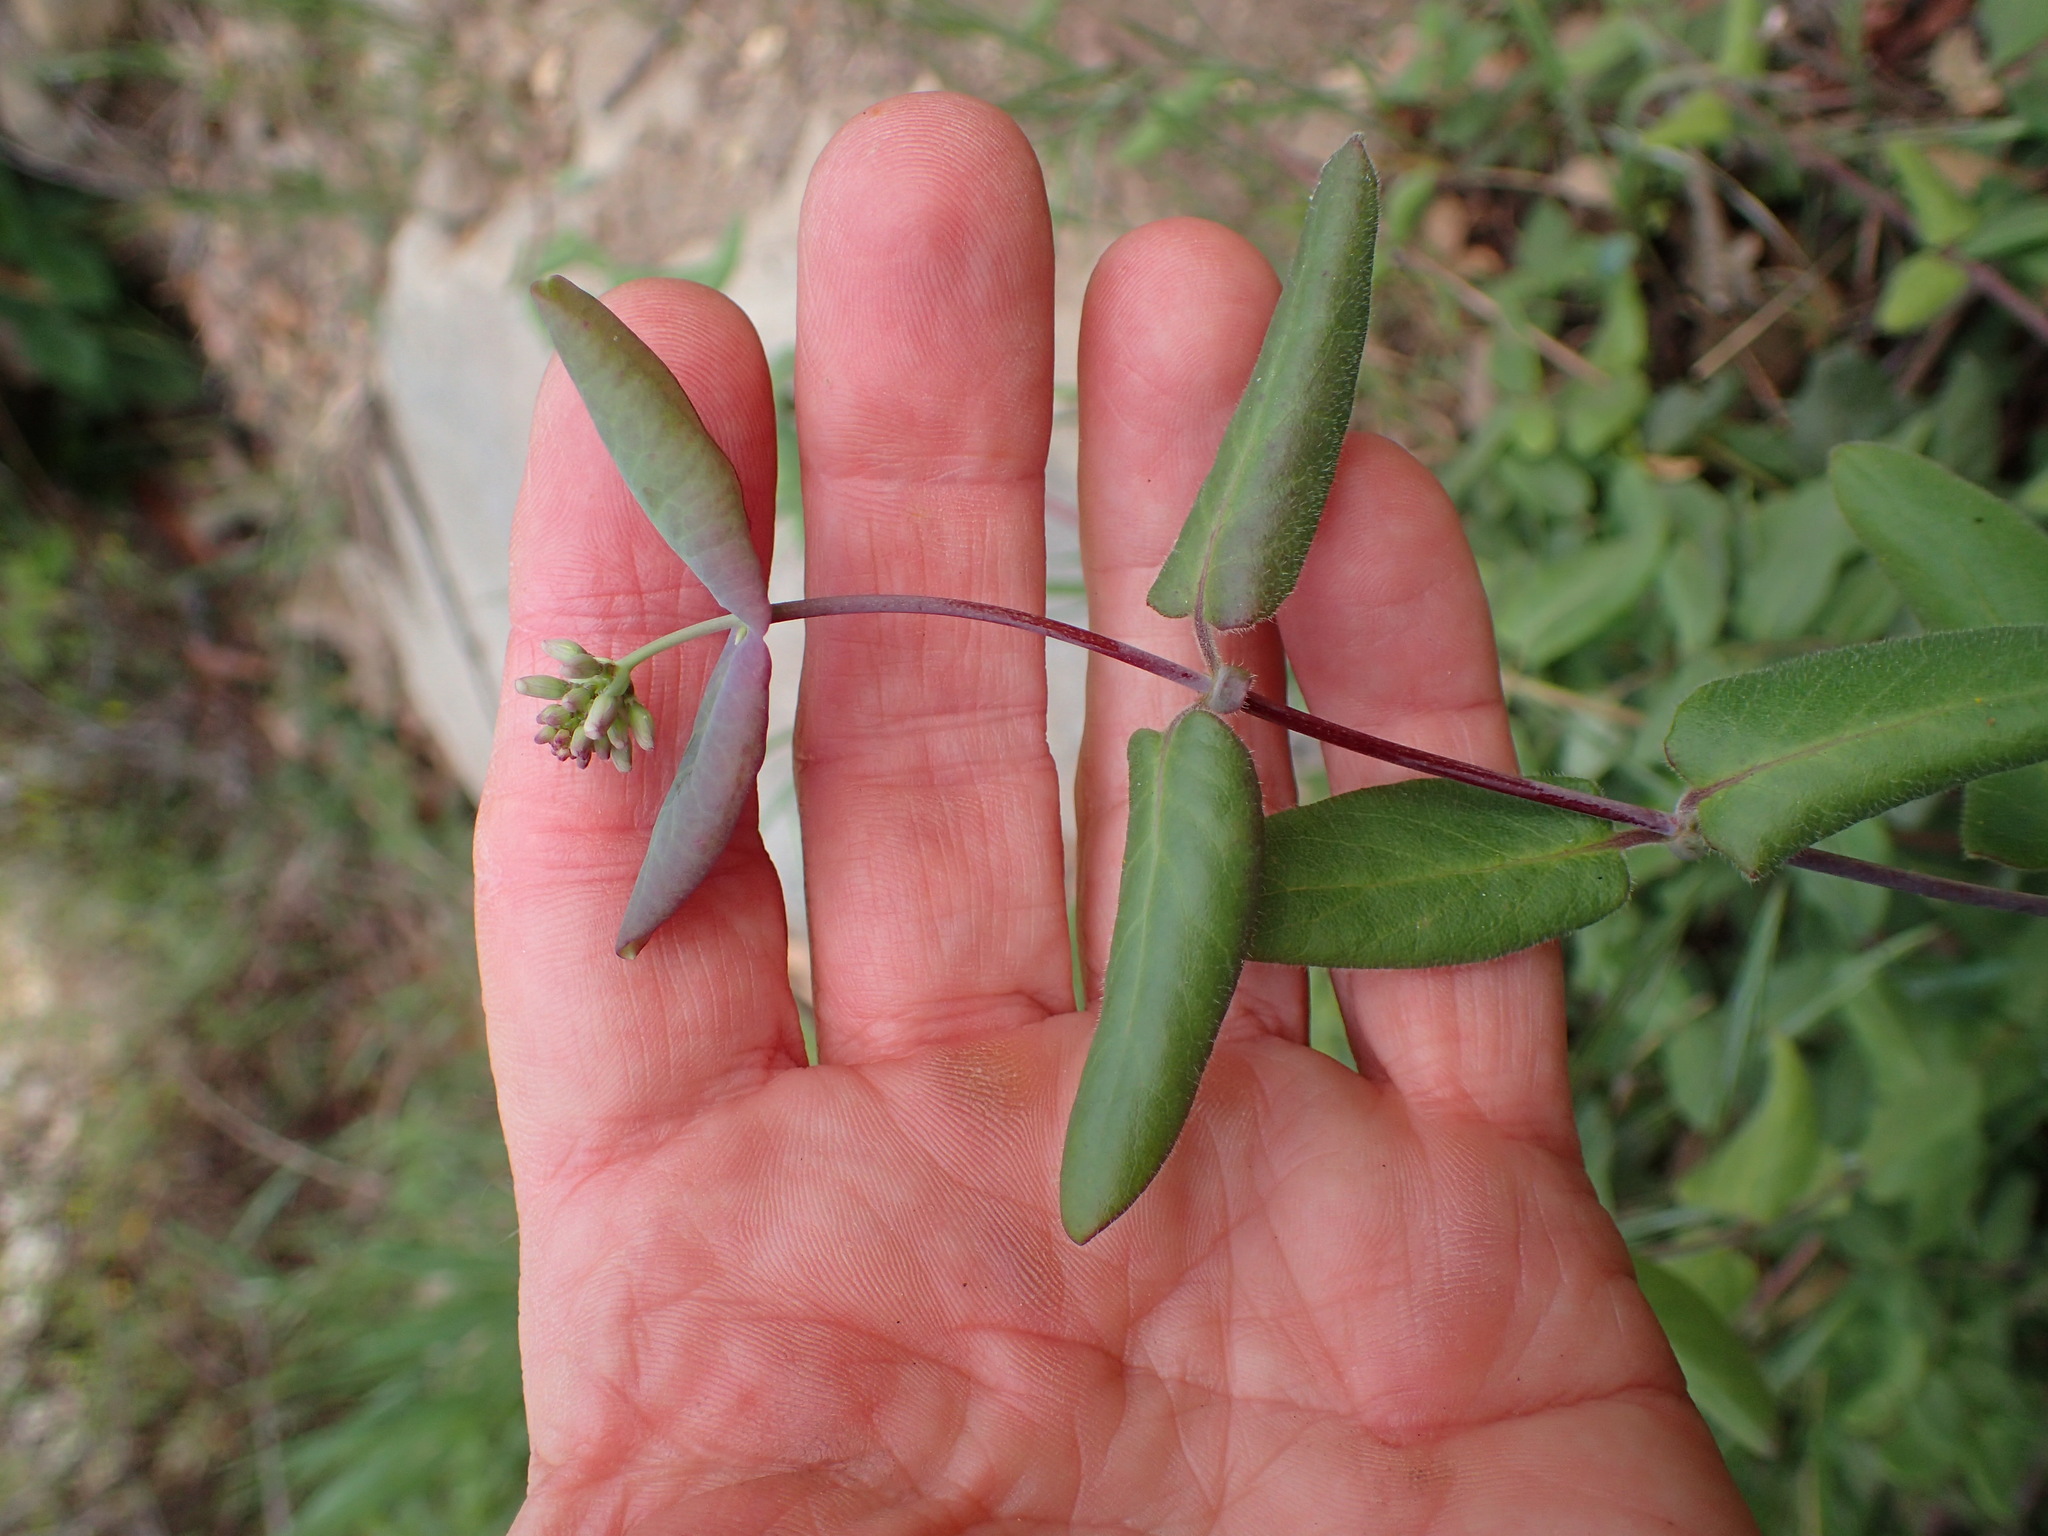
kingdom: Plantae
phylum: Tracheophyta
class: Magnoliopsida
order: Dipsacales
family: Caprifoliaceae
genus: Lonicera
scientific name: Lonicera hispidula
